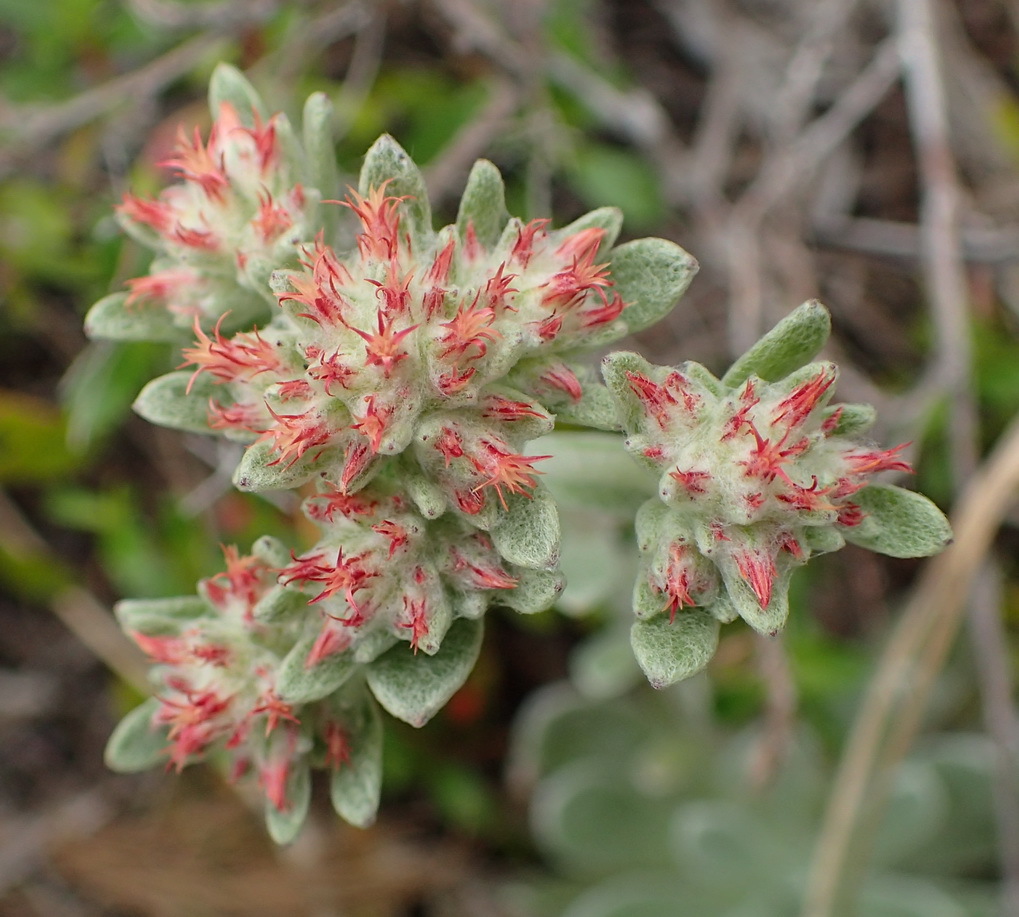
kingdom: Plantae
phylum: Tracheophyta
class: Magnoliopsida
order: Asterales
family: Asteraceae
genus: Helichrysum
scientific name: Helichrysum spiralepis
